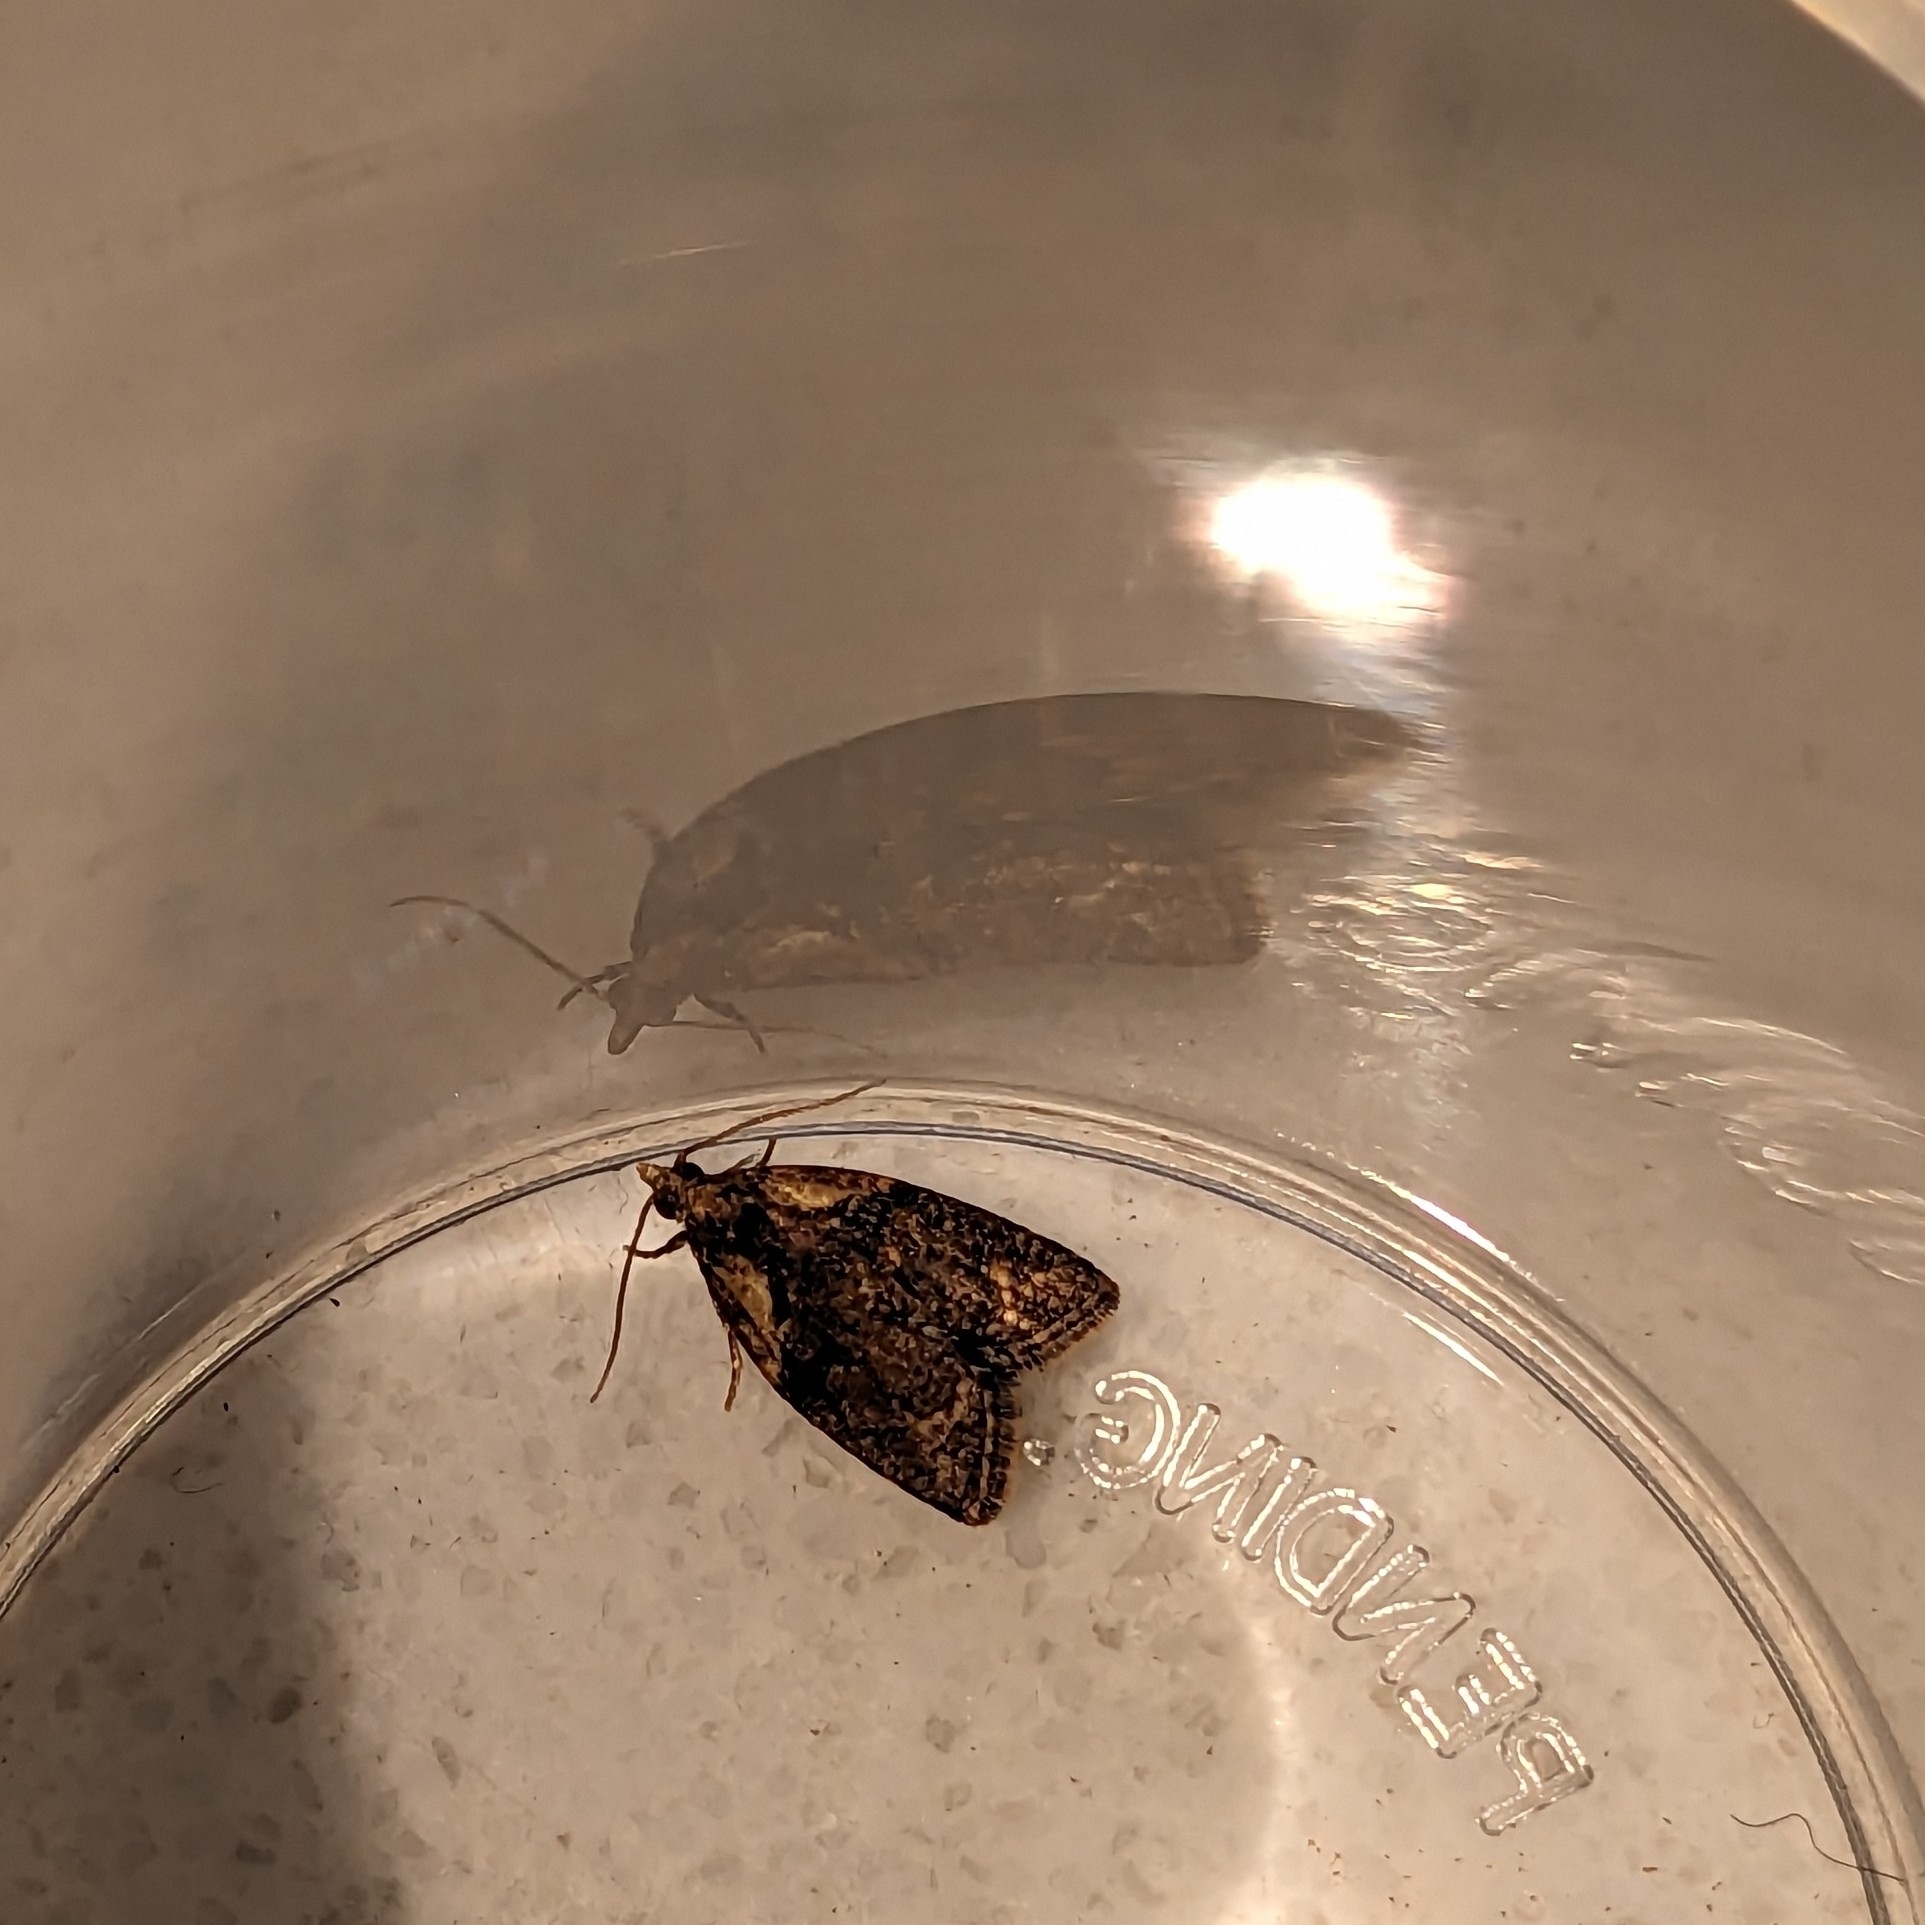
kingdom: Animalia
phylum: Arthropoda
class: Insecta
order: Lepidoptera
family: Tortricidae
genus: Capua
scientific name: Capua intractana
